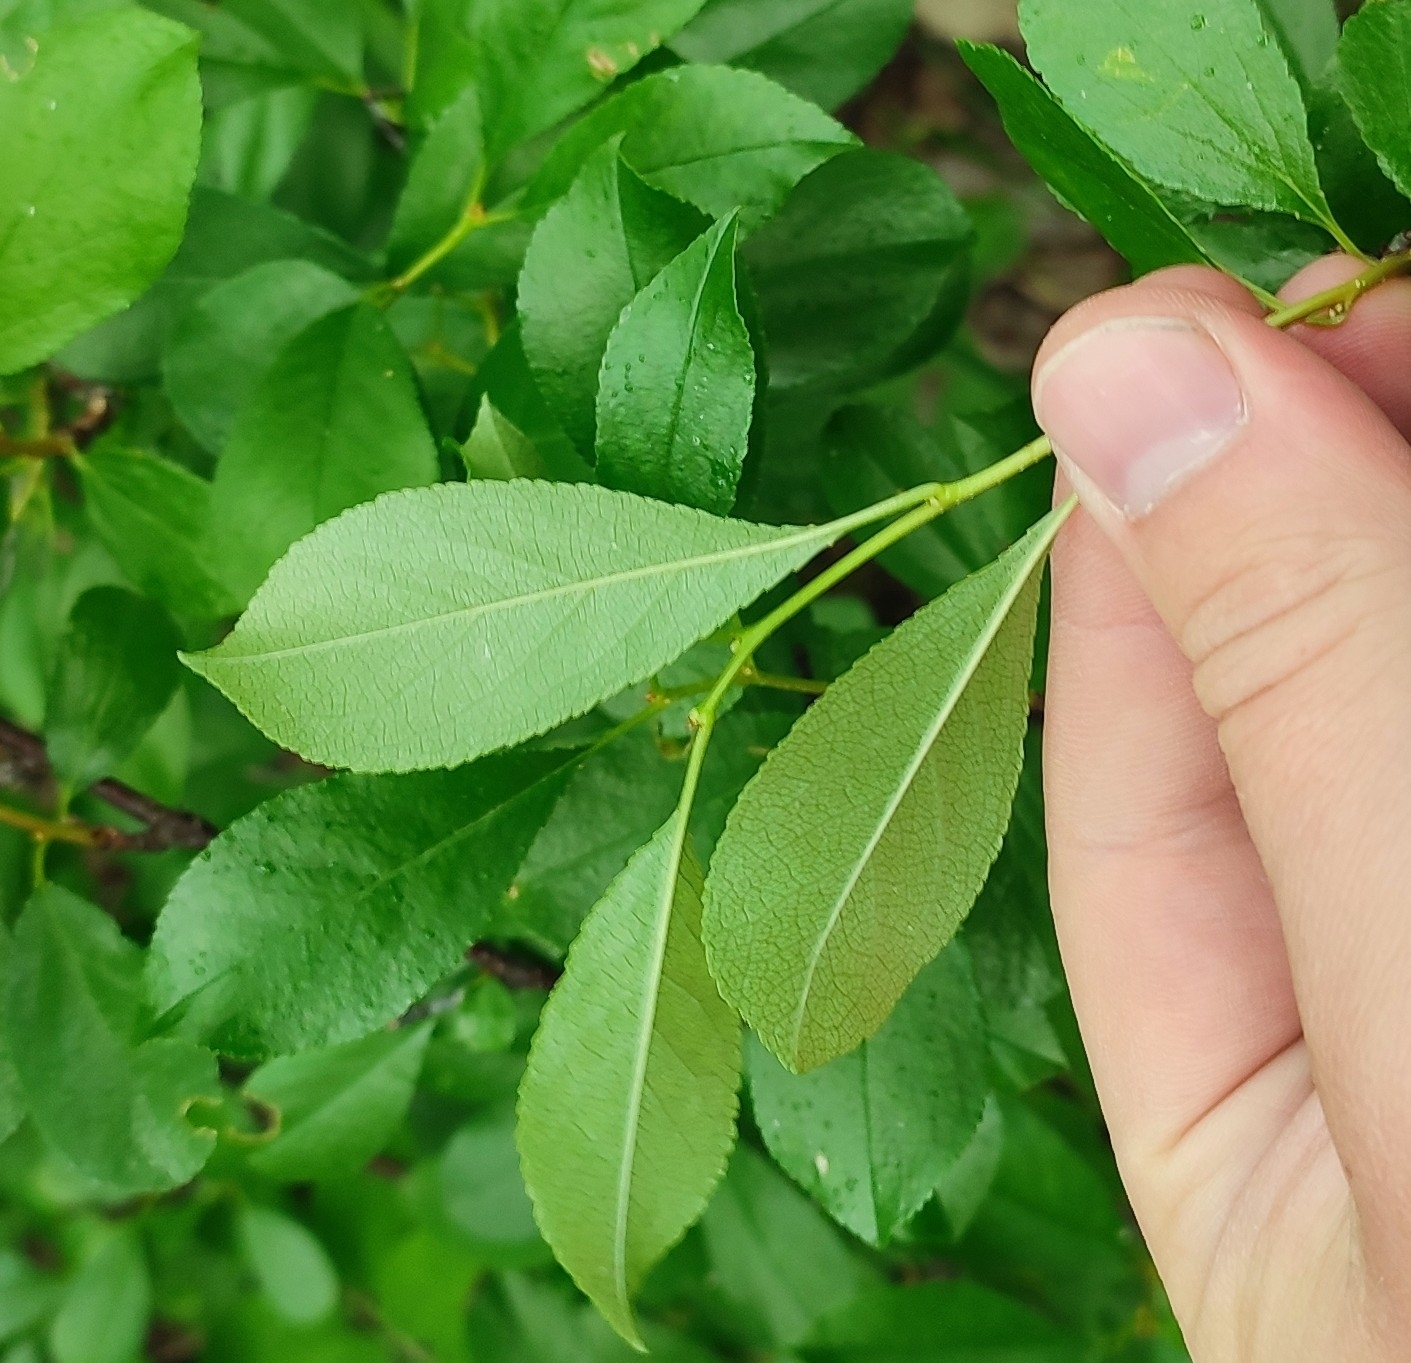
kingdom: Plantae
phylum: Tracheophyta
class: Magnoliopsida
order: Rosales
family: Rosaceae
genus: Prunus
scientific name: Prunus fruticosa
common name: European dwarf cherry
